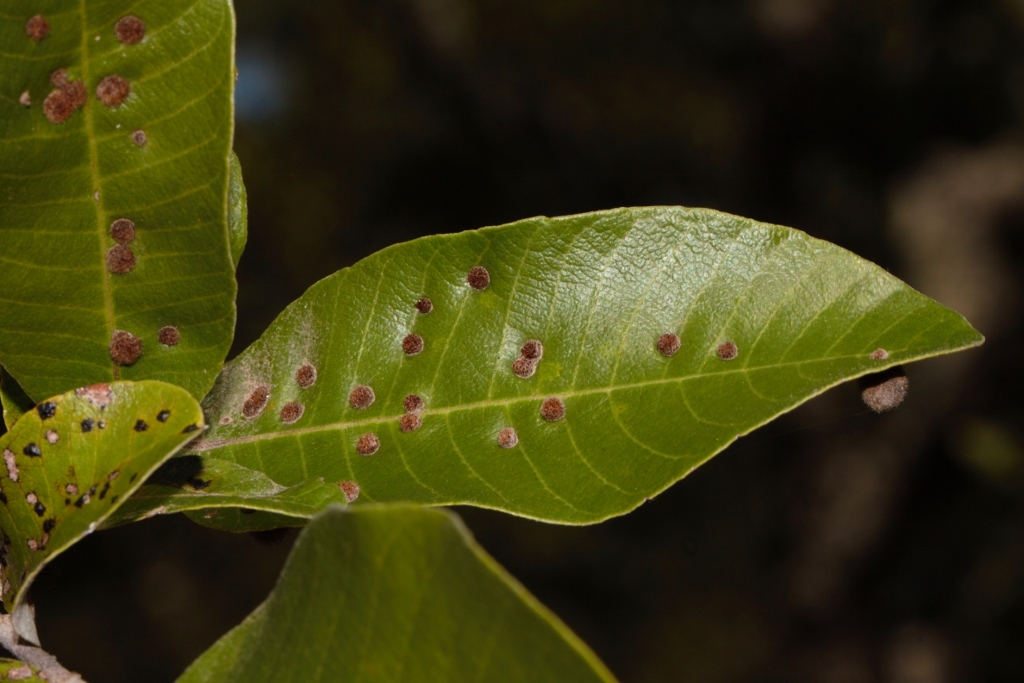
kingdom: Animalia
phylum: Arthropoda
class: Insecta
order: Diptera
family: Cecidomyiidae
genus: Lopesia
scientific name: Lopesia parimarii
